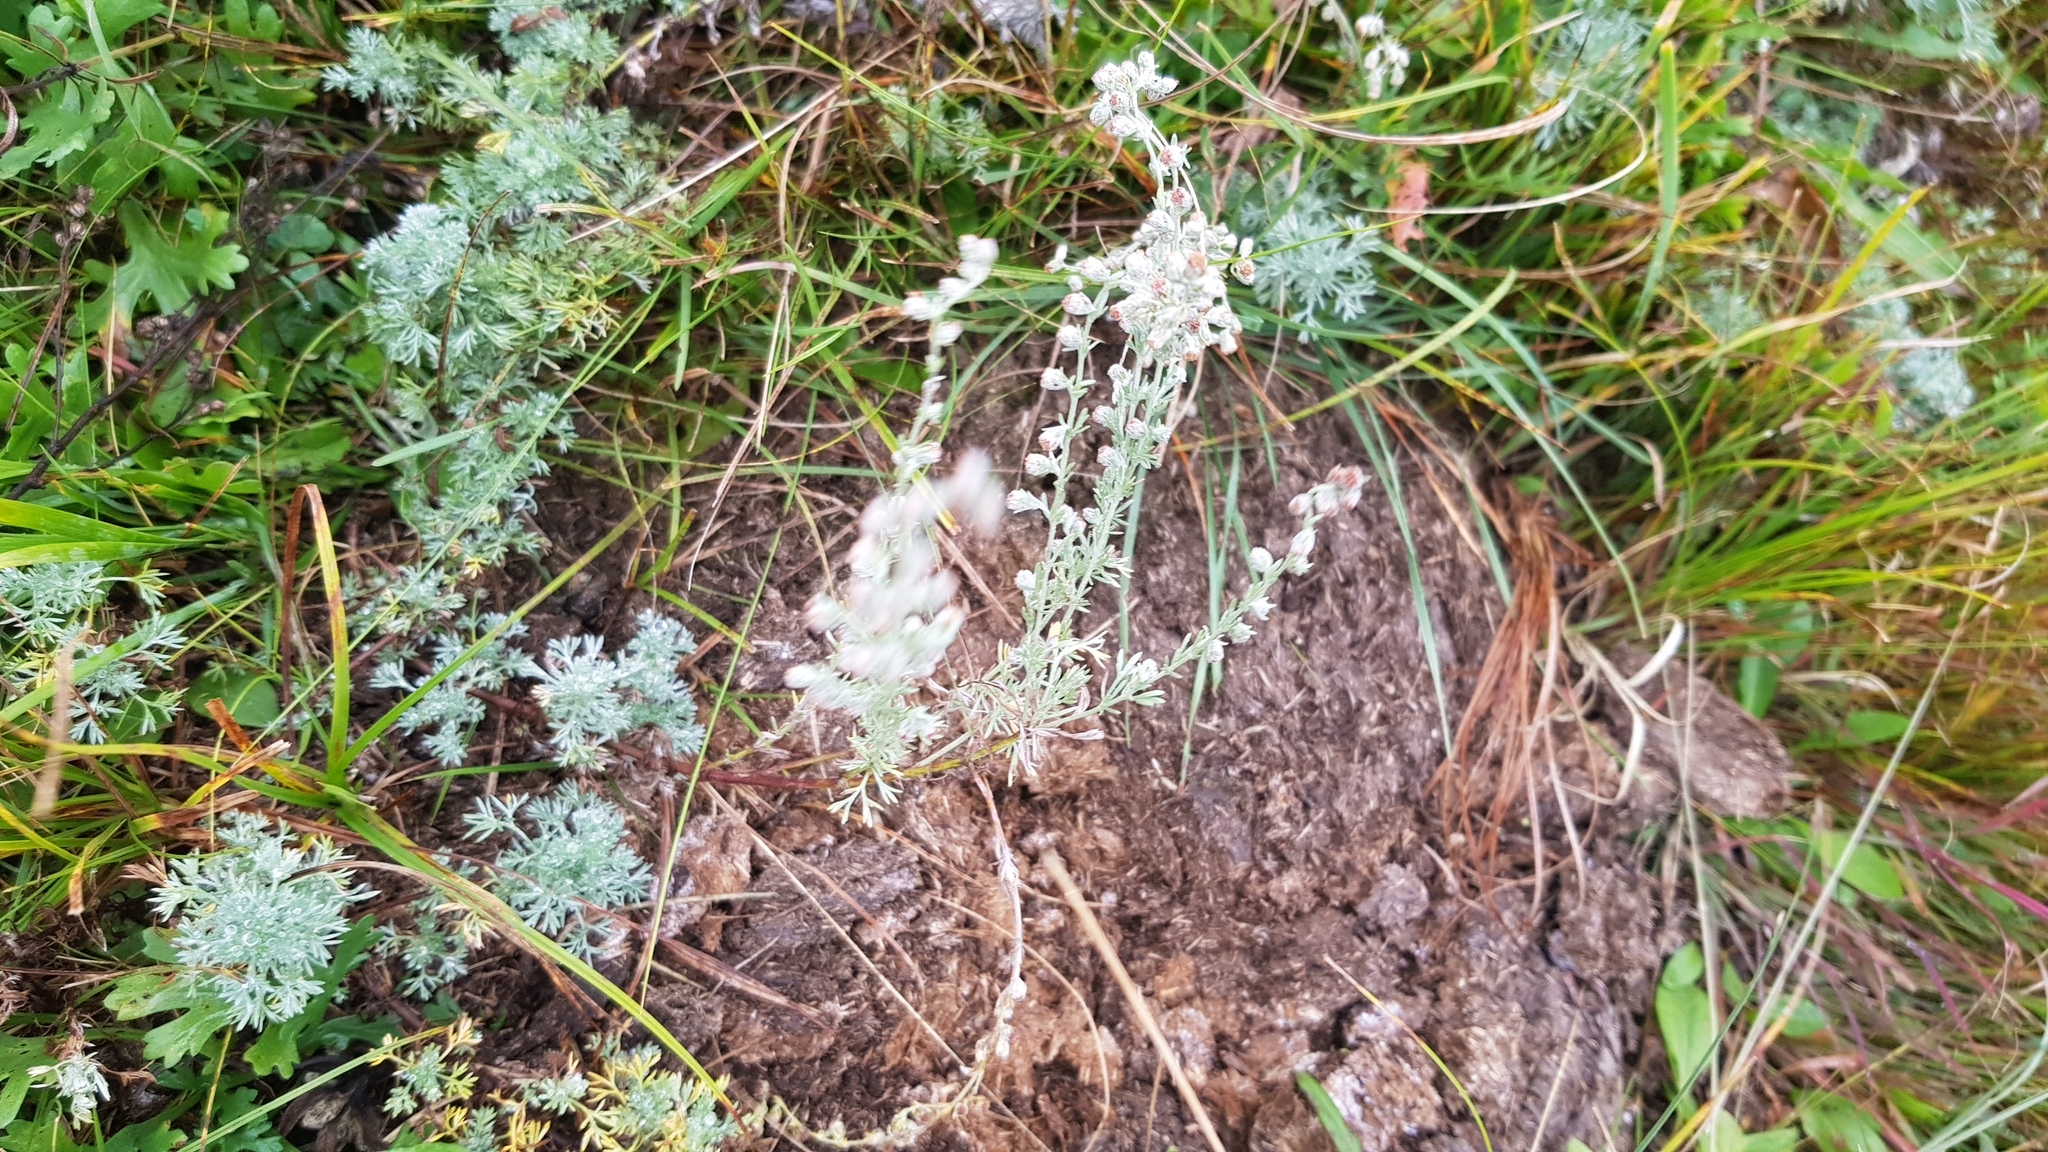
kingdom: Plantae
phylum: Tracheophyta
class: Magnoliopsida
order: Asterales
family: Asteraceae
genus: Artemisia
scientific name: Artemisia frigida
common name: Prairie sagewort
